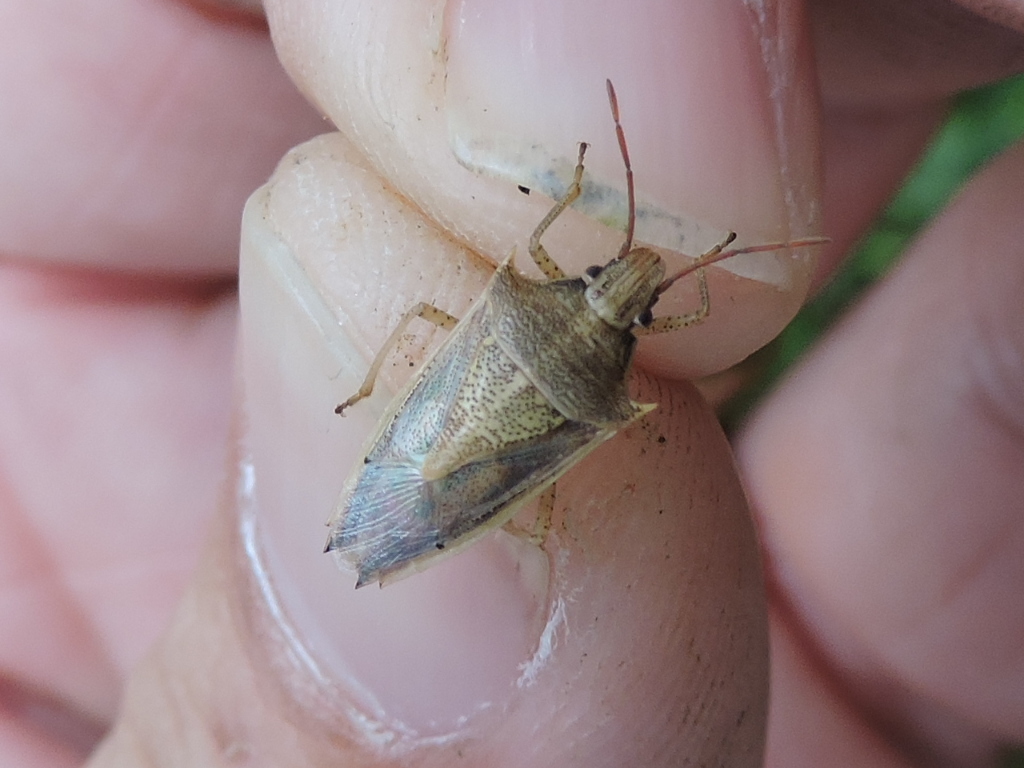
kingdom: Animalia
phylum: Arthropoda
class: Insecta
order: Hemiptera
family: Pentatomidae
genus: Oebalus
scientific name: Oebalus pugnax
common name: Rice stink bug
